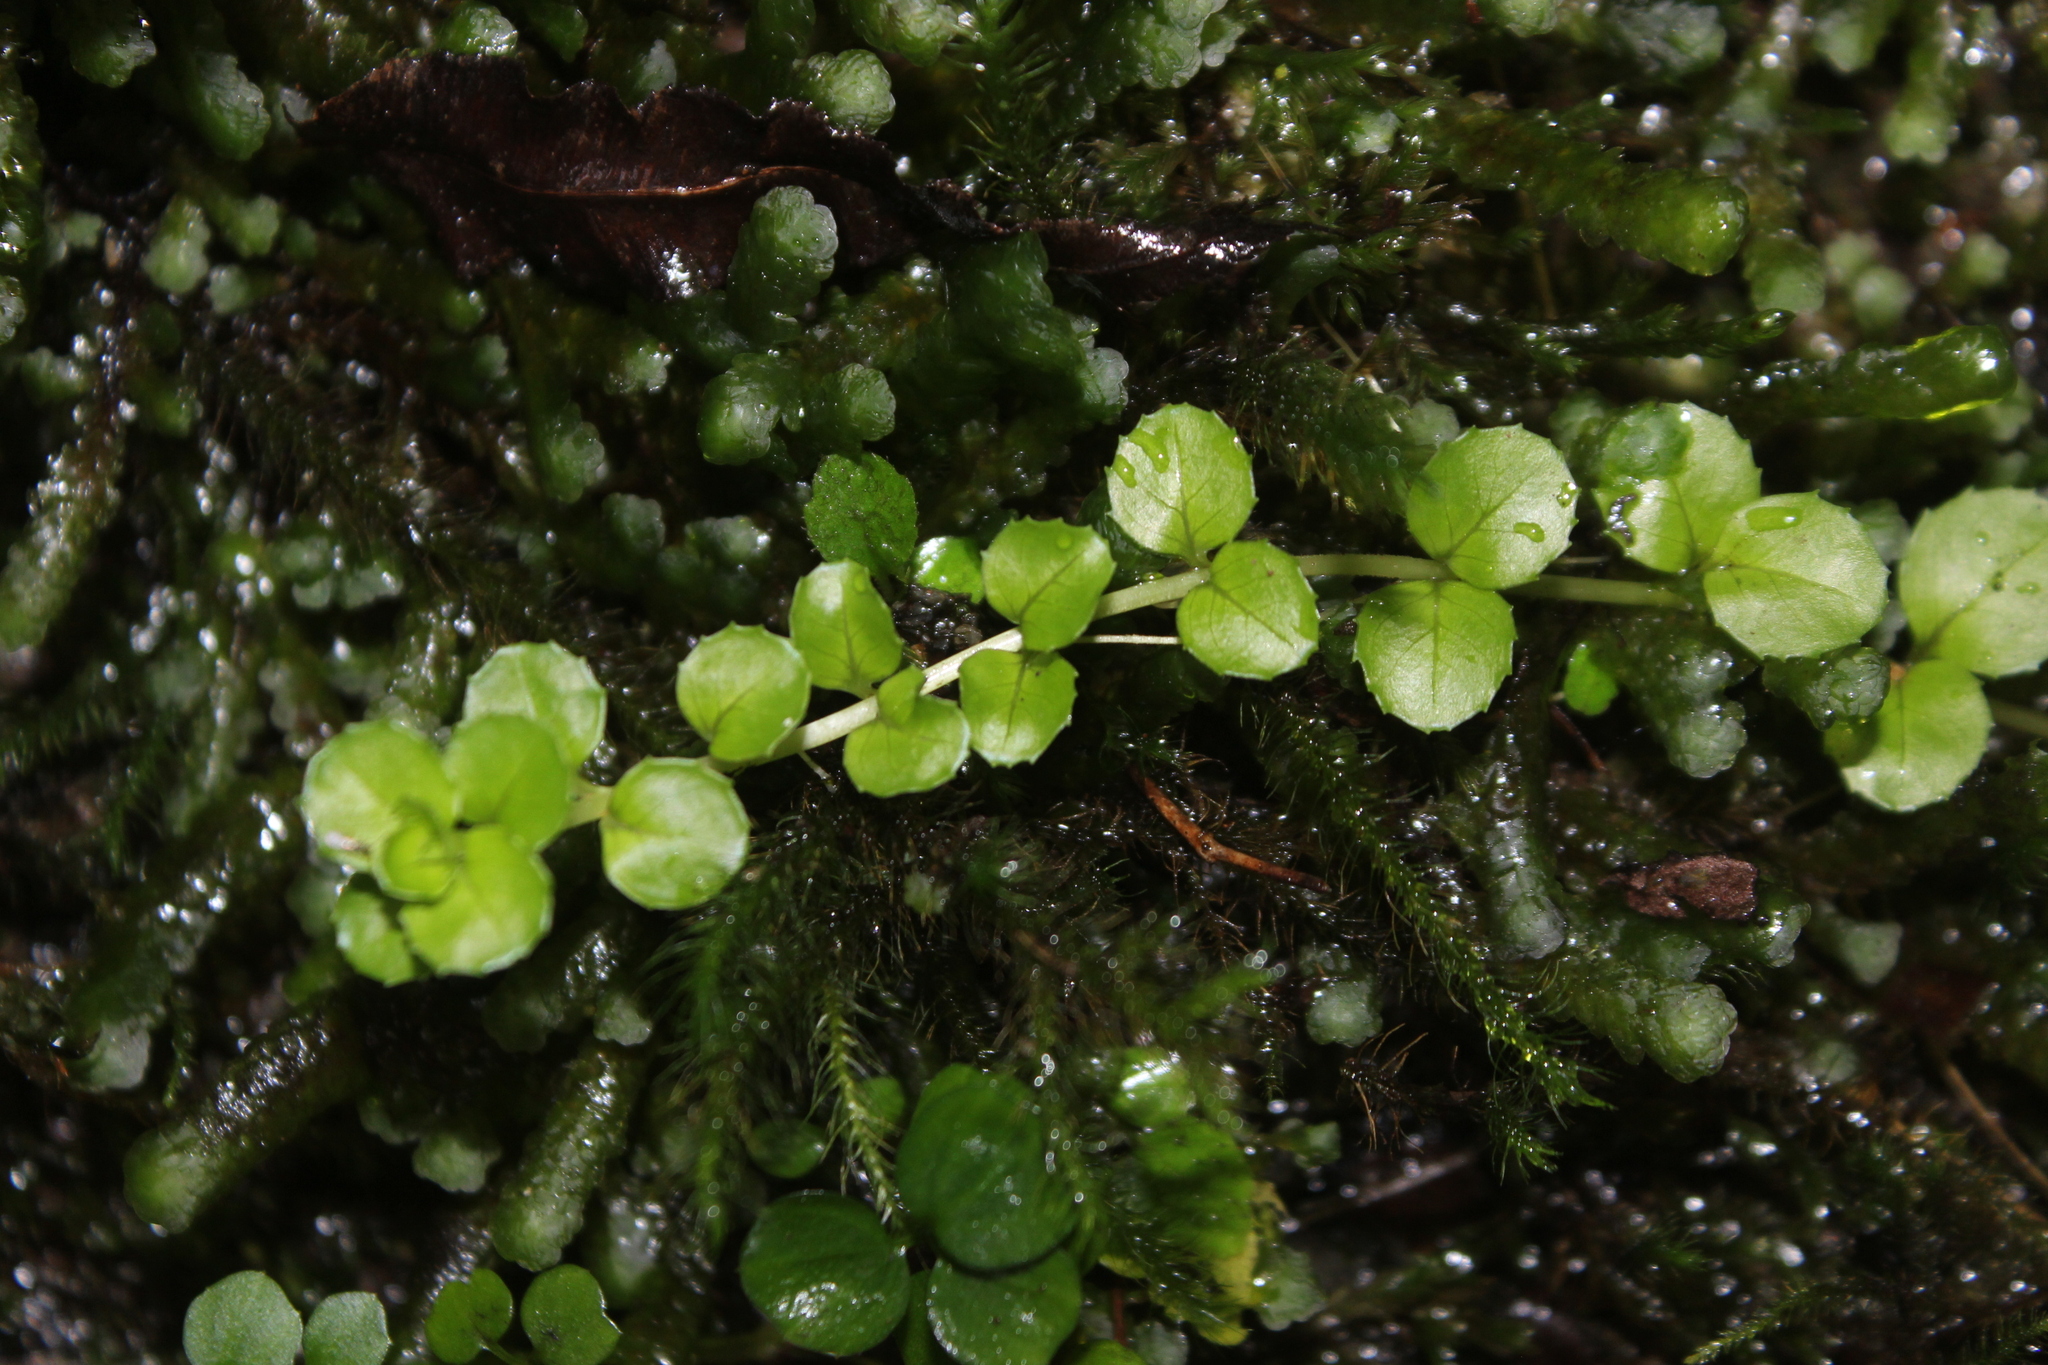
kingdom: Plantae
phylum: Tracheophyta
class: Magnoliopsida
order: Myrtales
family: Onagraceae
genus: Epilobium
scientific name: Epilobium pedunculare
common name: Rockery willowherb
